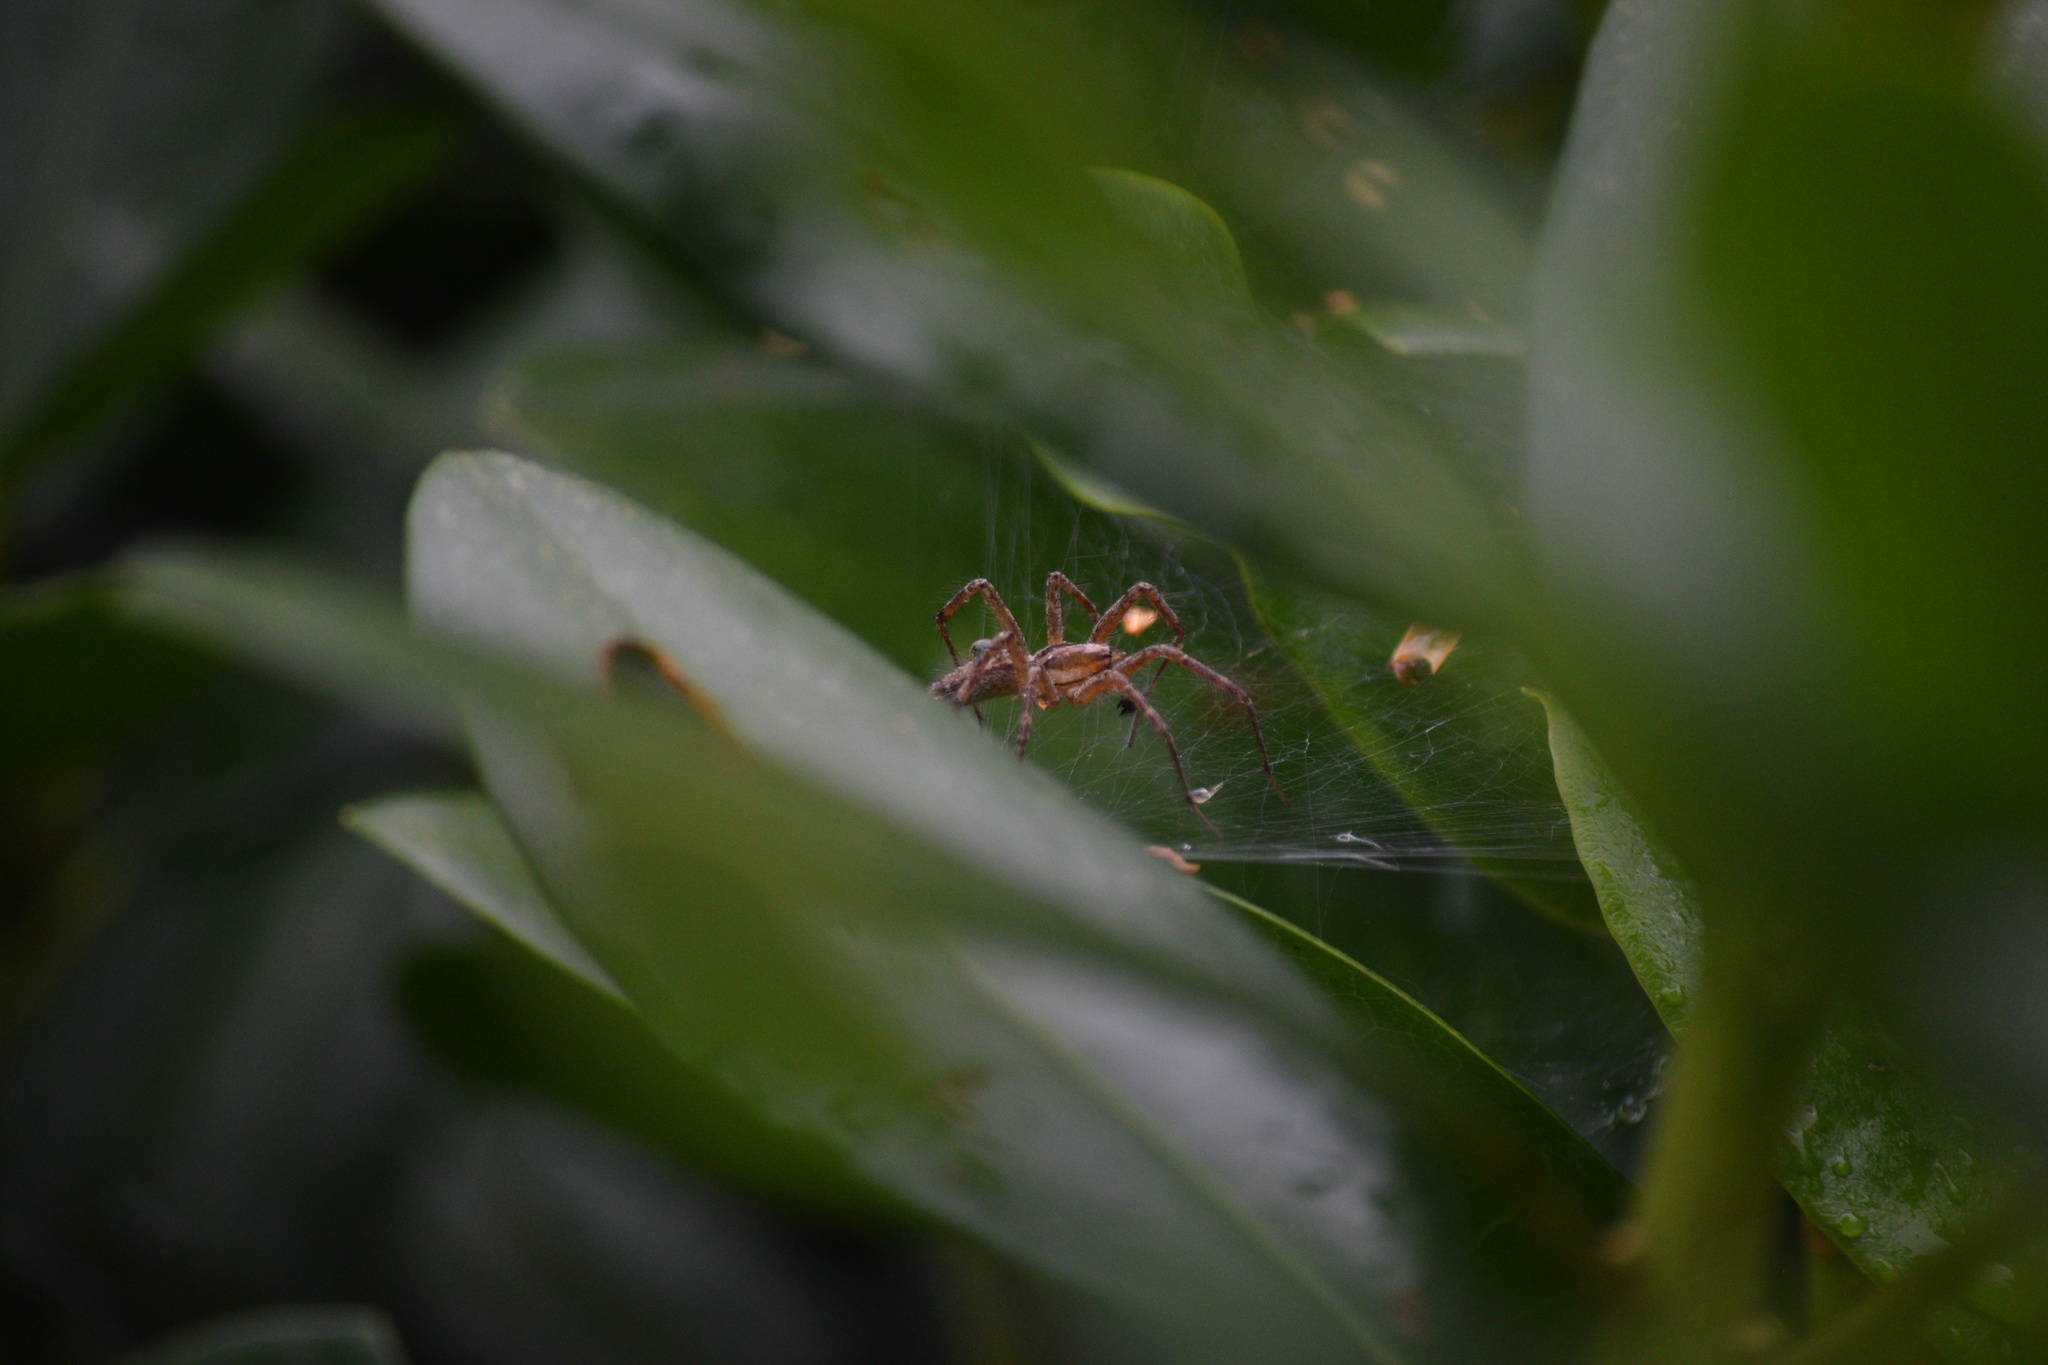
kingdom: Animalia
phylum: Arthropoda
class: Arachnida
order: Araneae
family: Agelenidae
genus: Agelenopsis
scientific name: Agelenopsis
